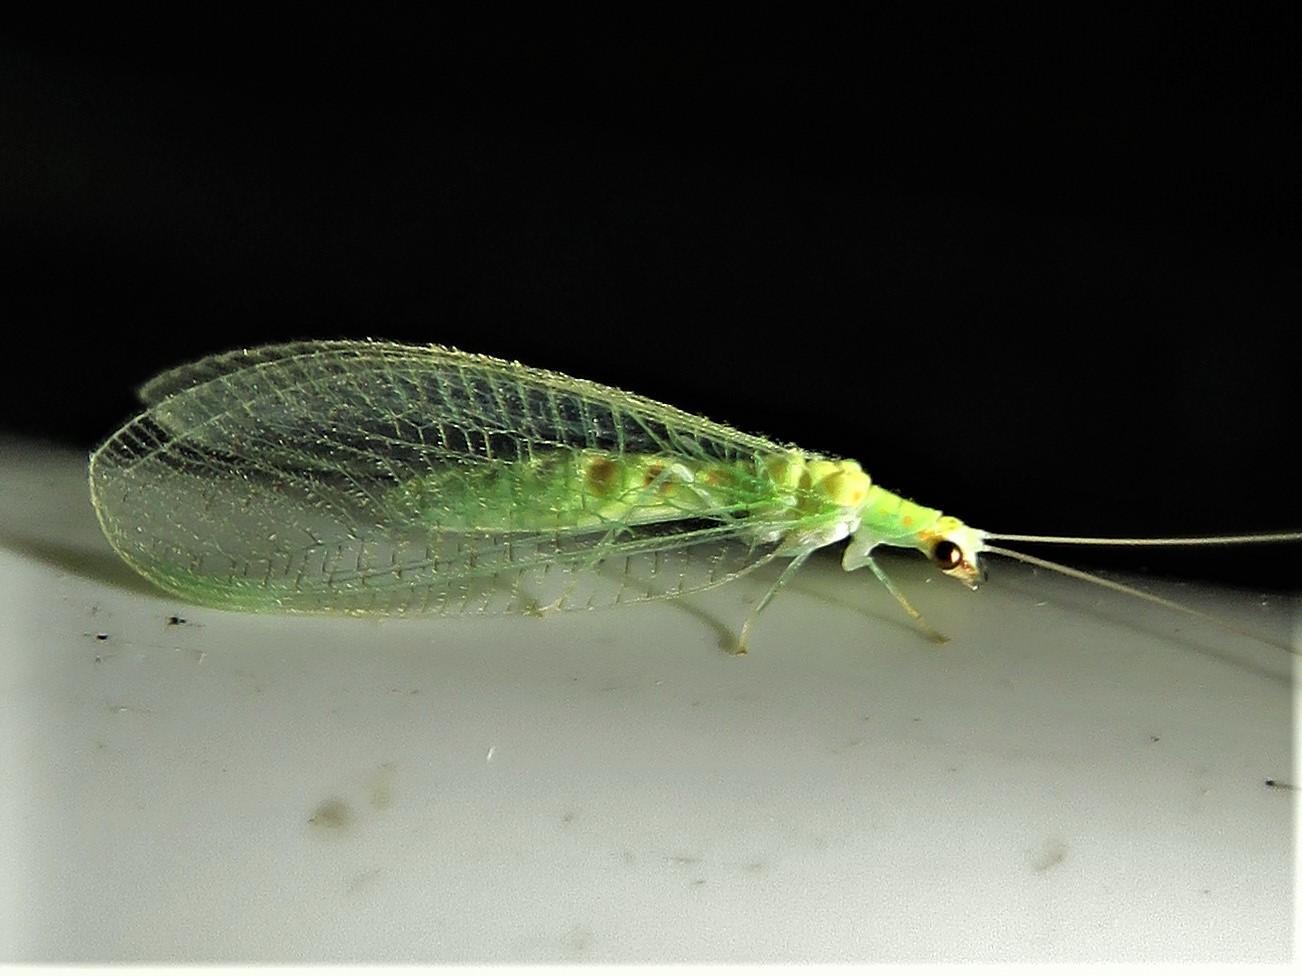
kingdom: Animalia
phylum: Arthropoda
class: Insecta
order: Neuroptera
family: Chrysopidae
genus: Chrysopa
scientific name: Chrysopa quadripunctata
